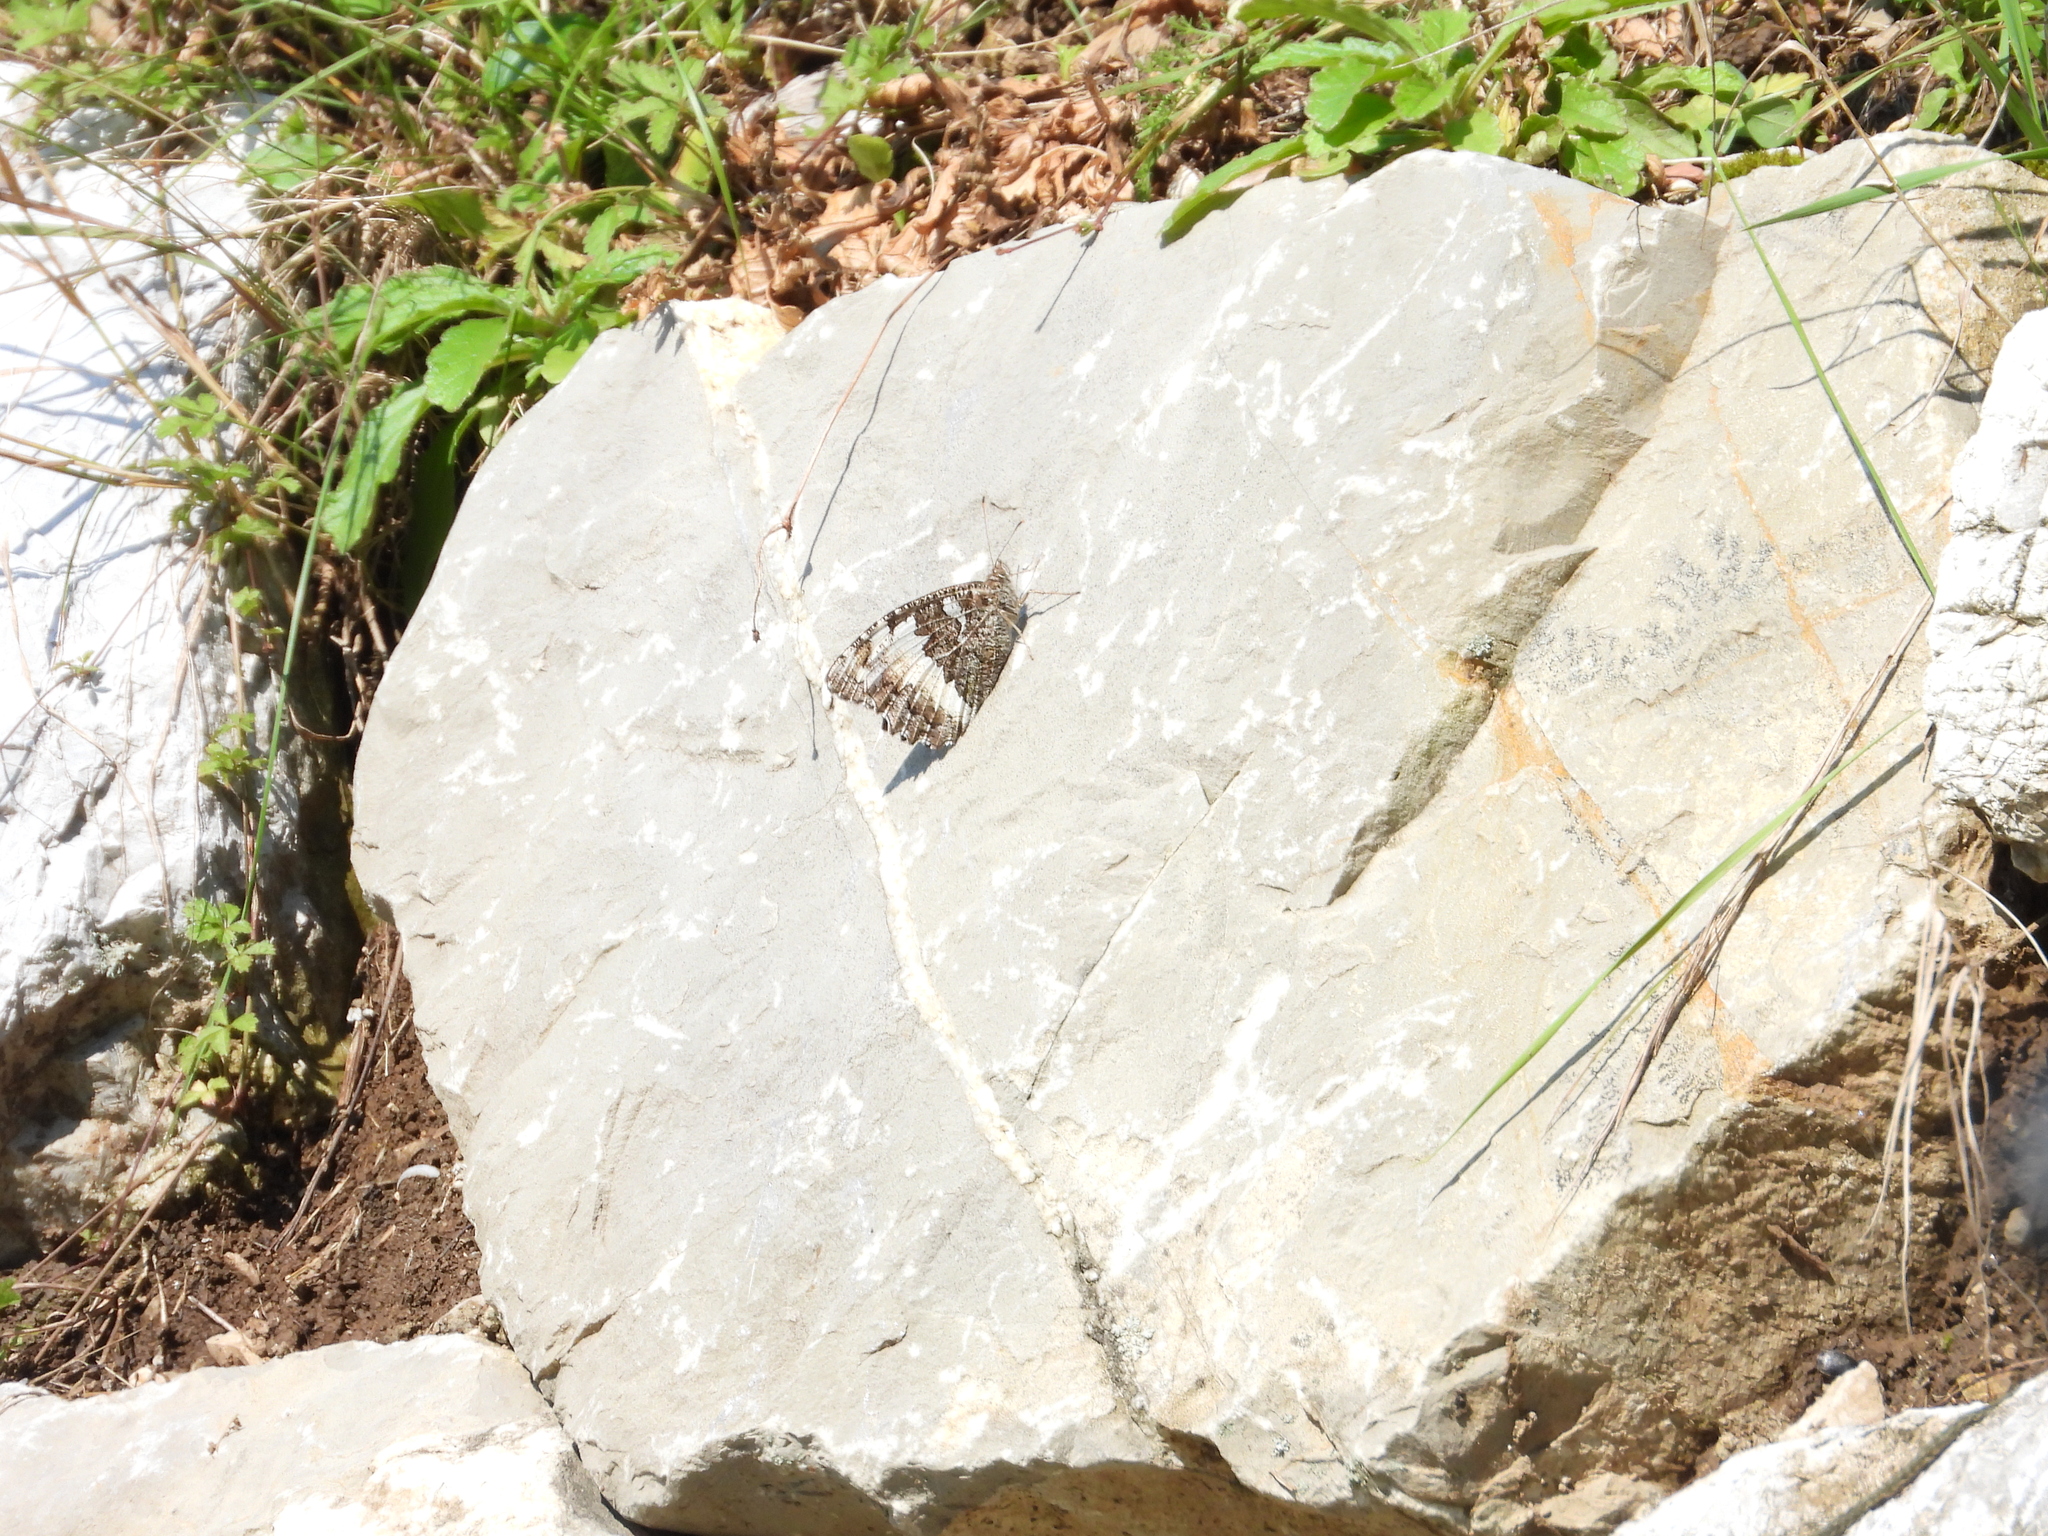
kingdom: Animalia
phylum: Arthropoda
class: Insecta
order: Lepidoptera
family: Lycaenidae
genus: Loweia
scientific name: Loweia tityrus
